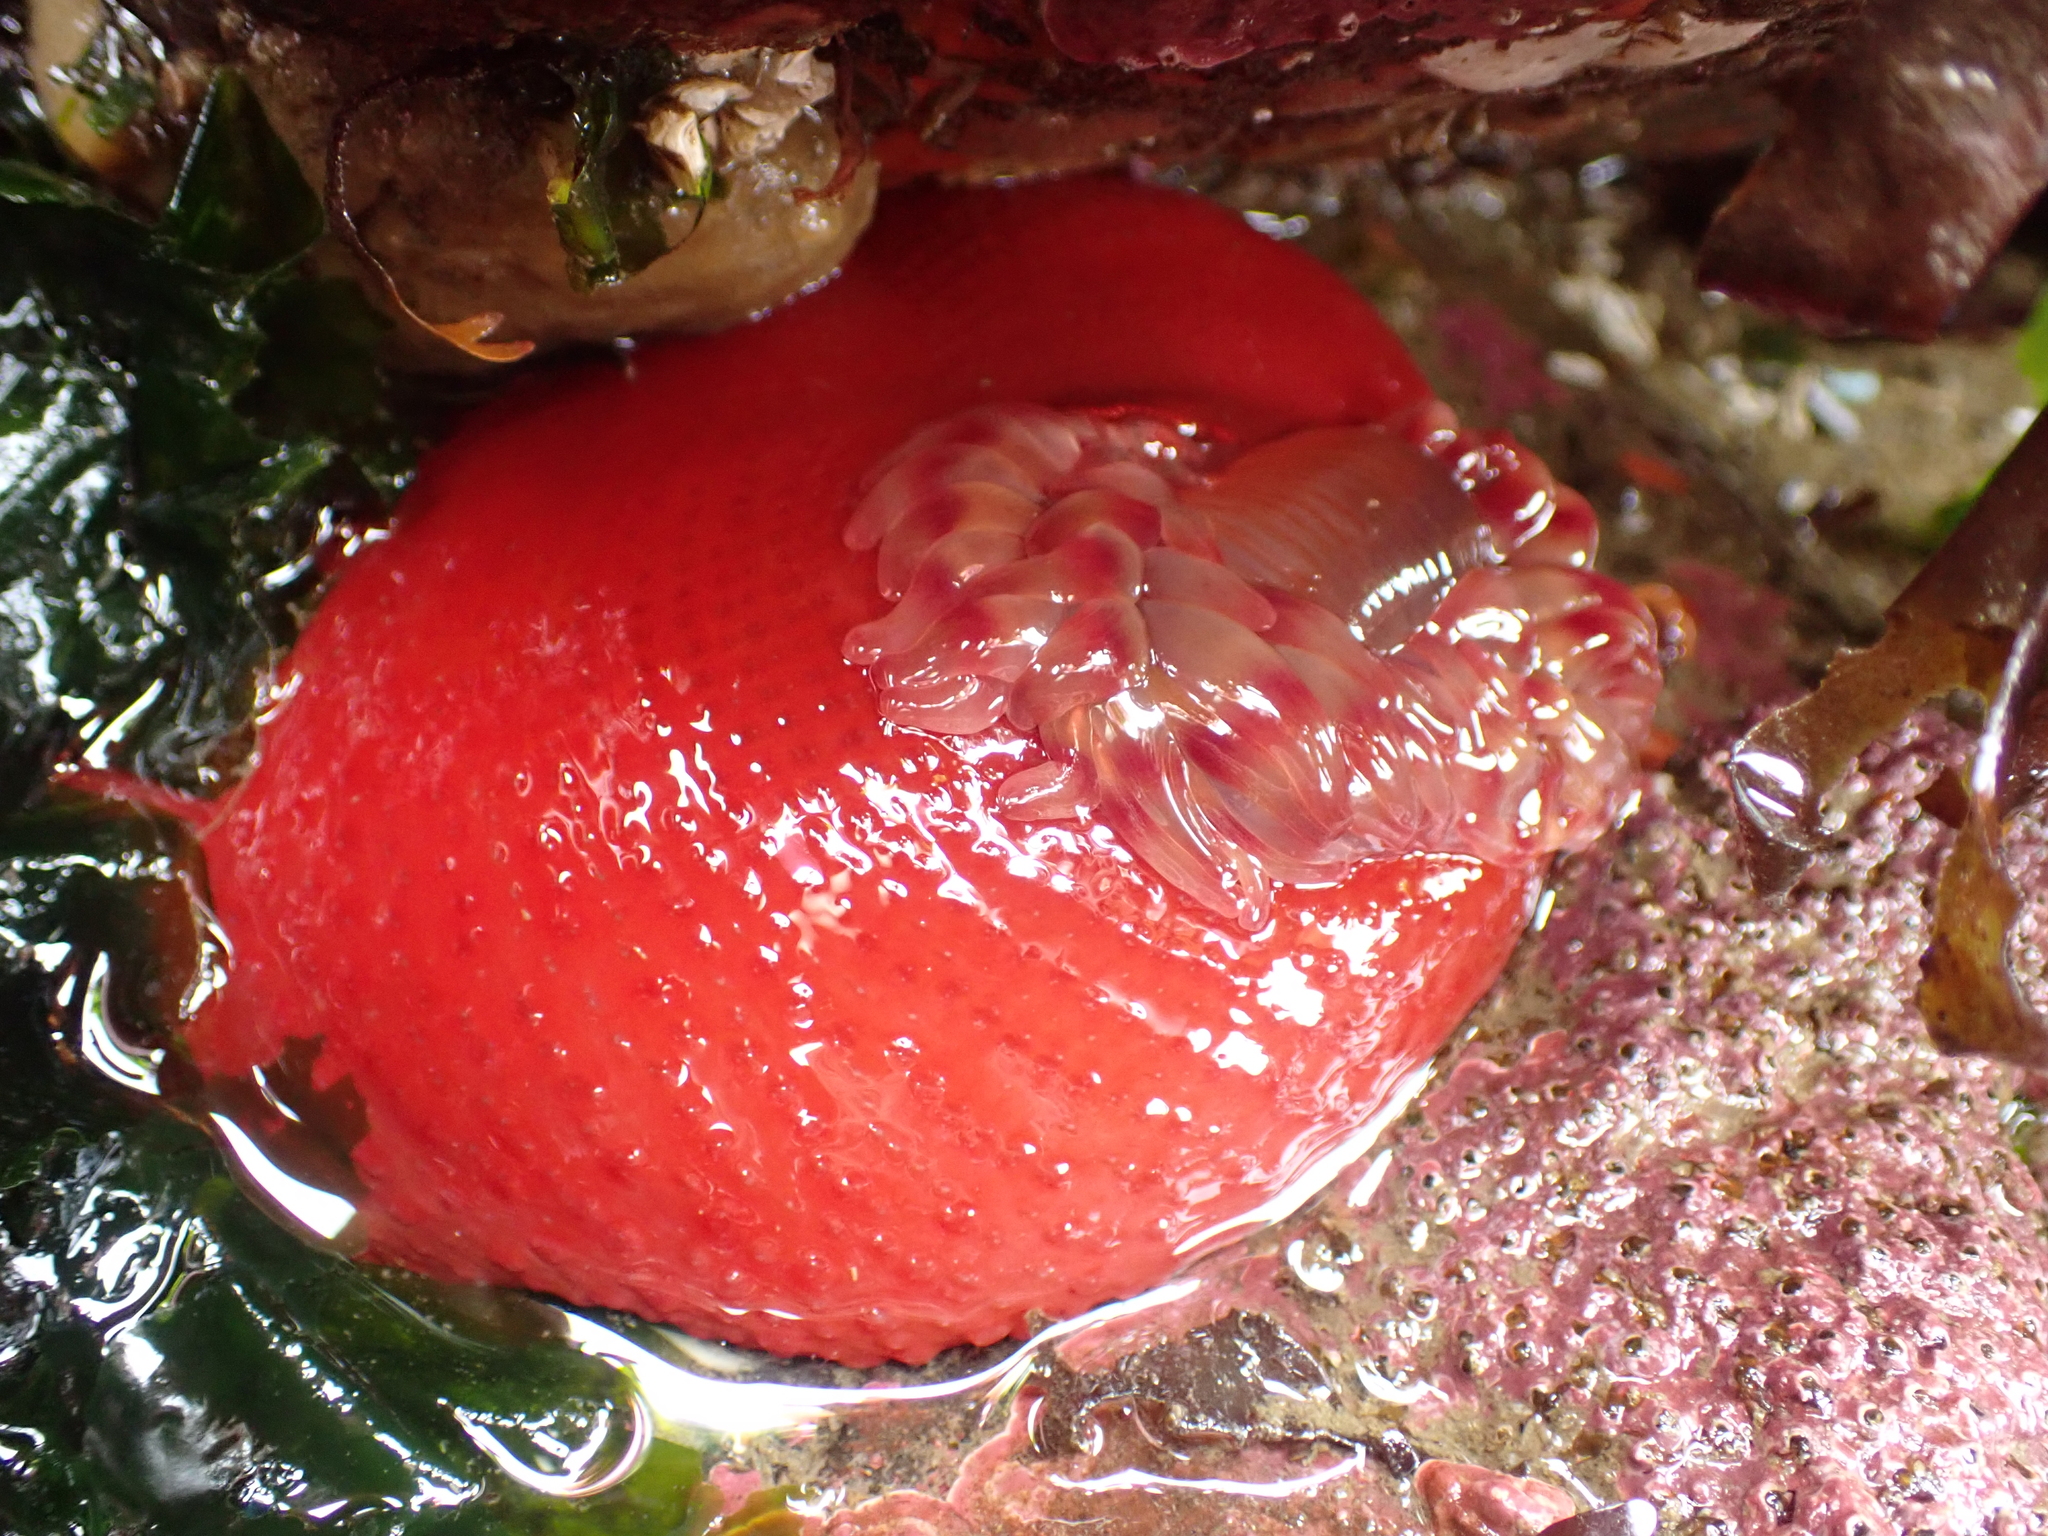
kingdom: Animalia
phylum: Cnidaria
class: Anthozoa
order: Actiniaria
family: Actiniidae
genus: Urticina
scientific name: Urticina grebelnyi
